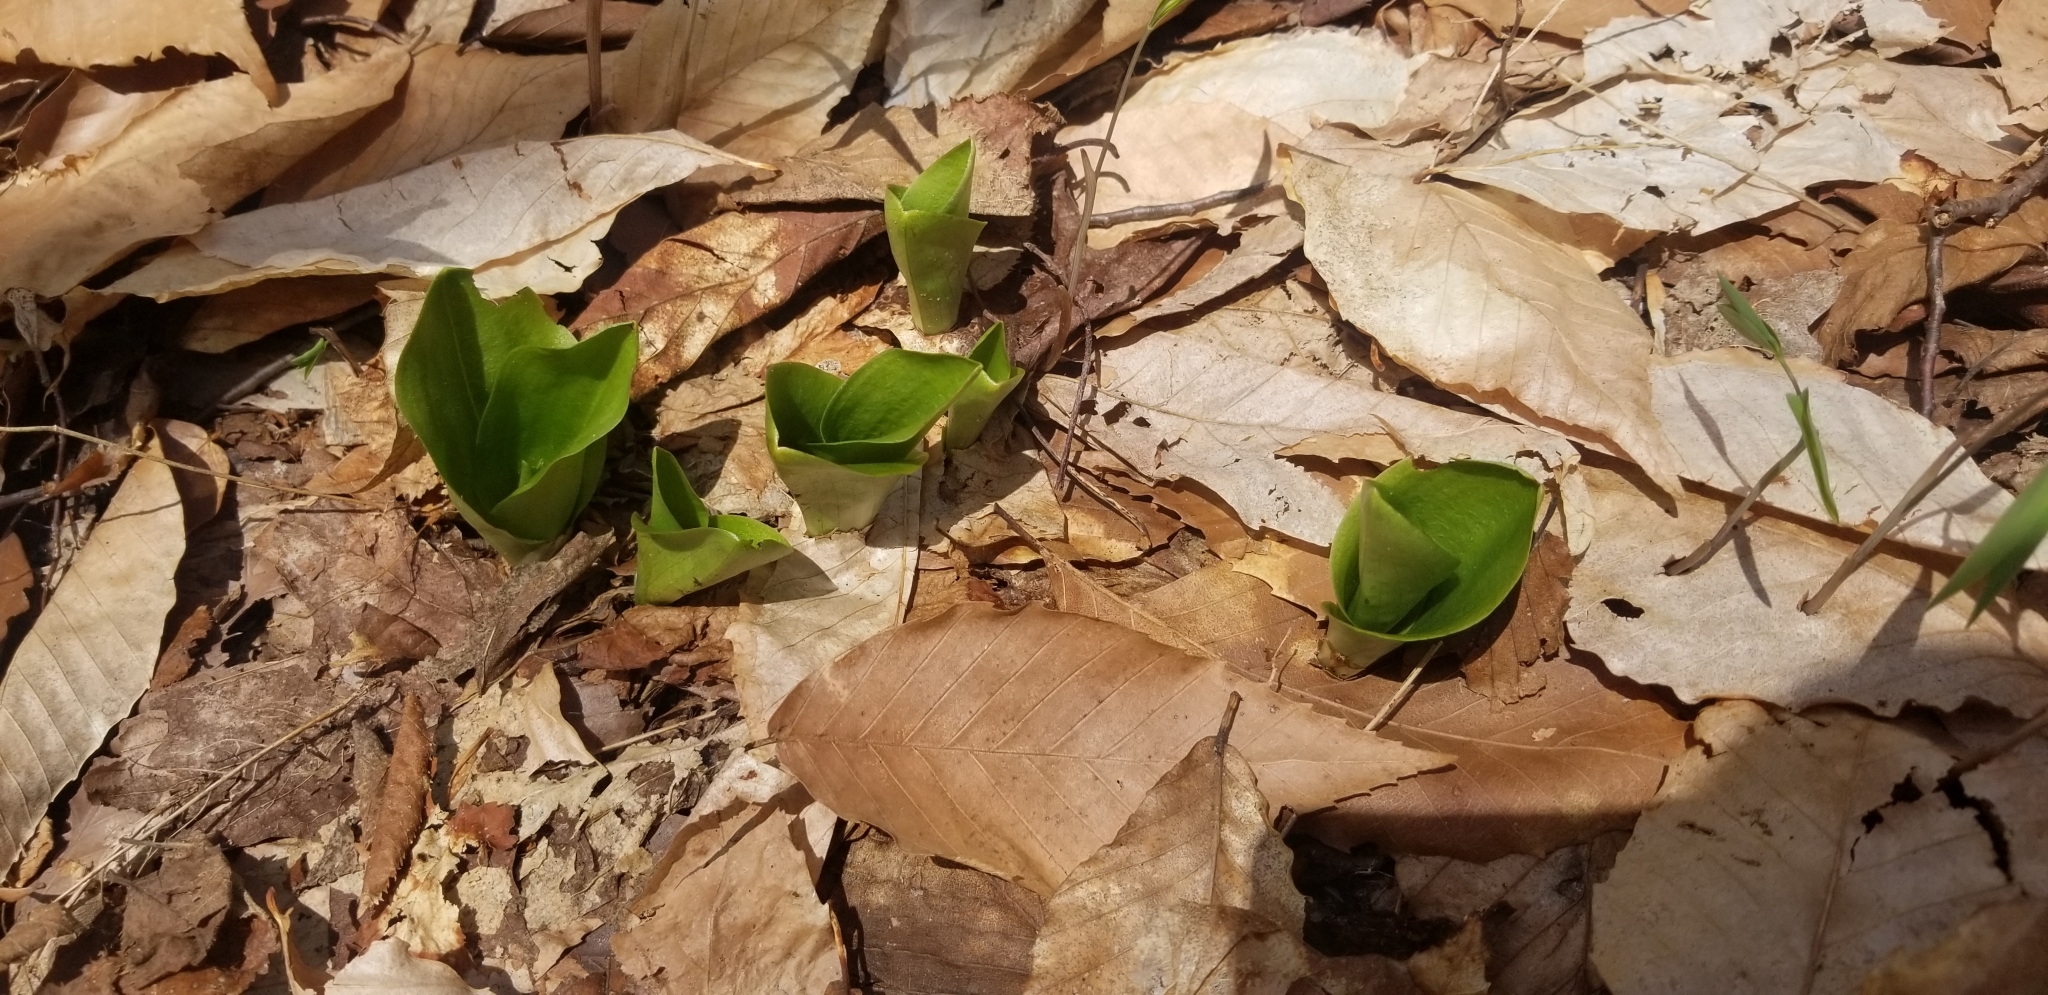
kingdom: Plantae
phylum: Tracheophyta
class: Liliopsida
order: Asparagales
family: Orchidaceae
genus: Galearis
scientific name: Galearis spectabilis
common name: Purple-hooded orchis
